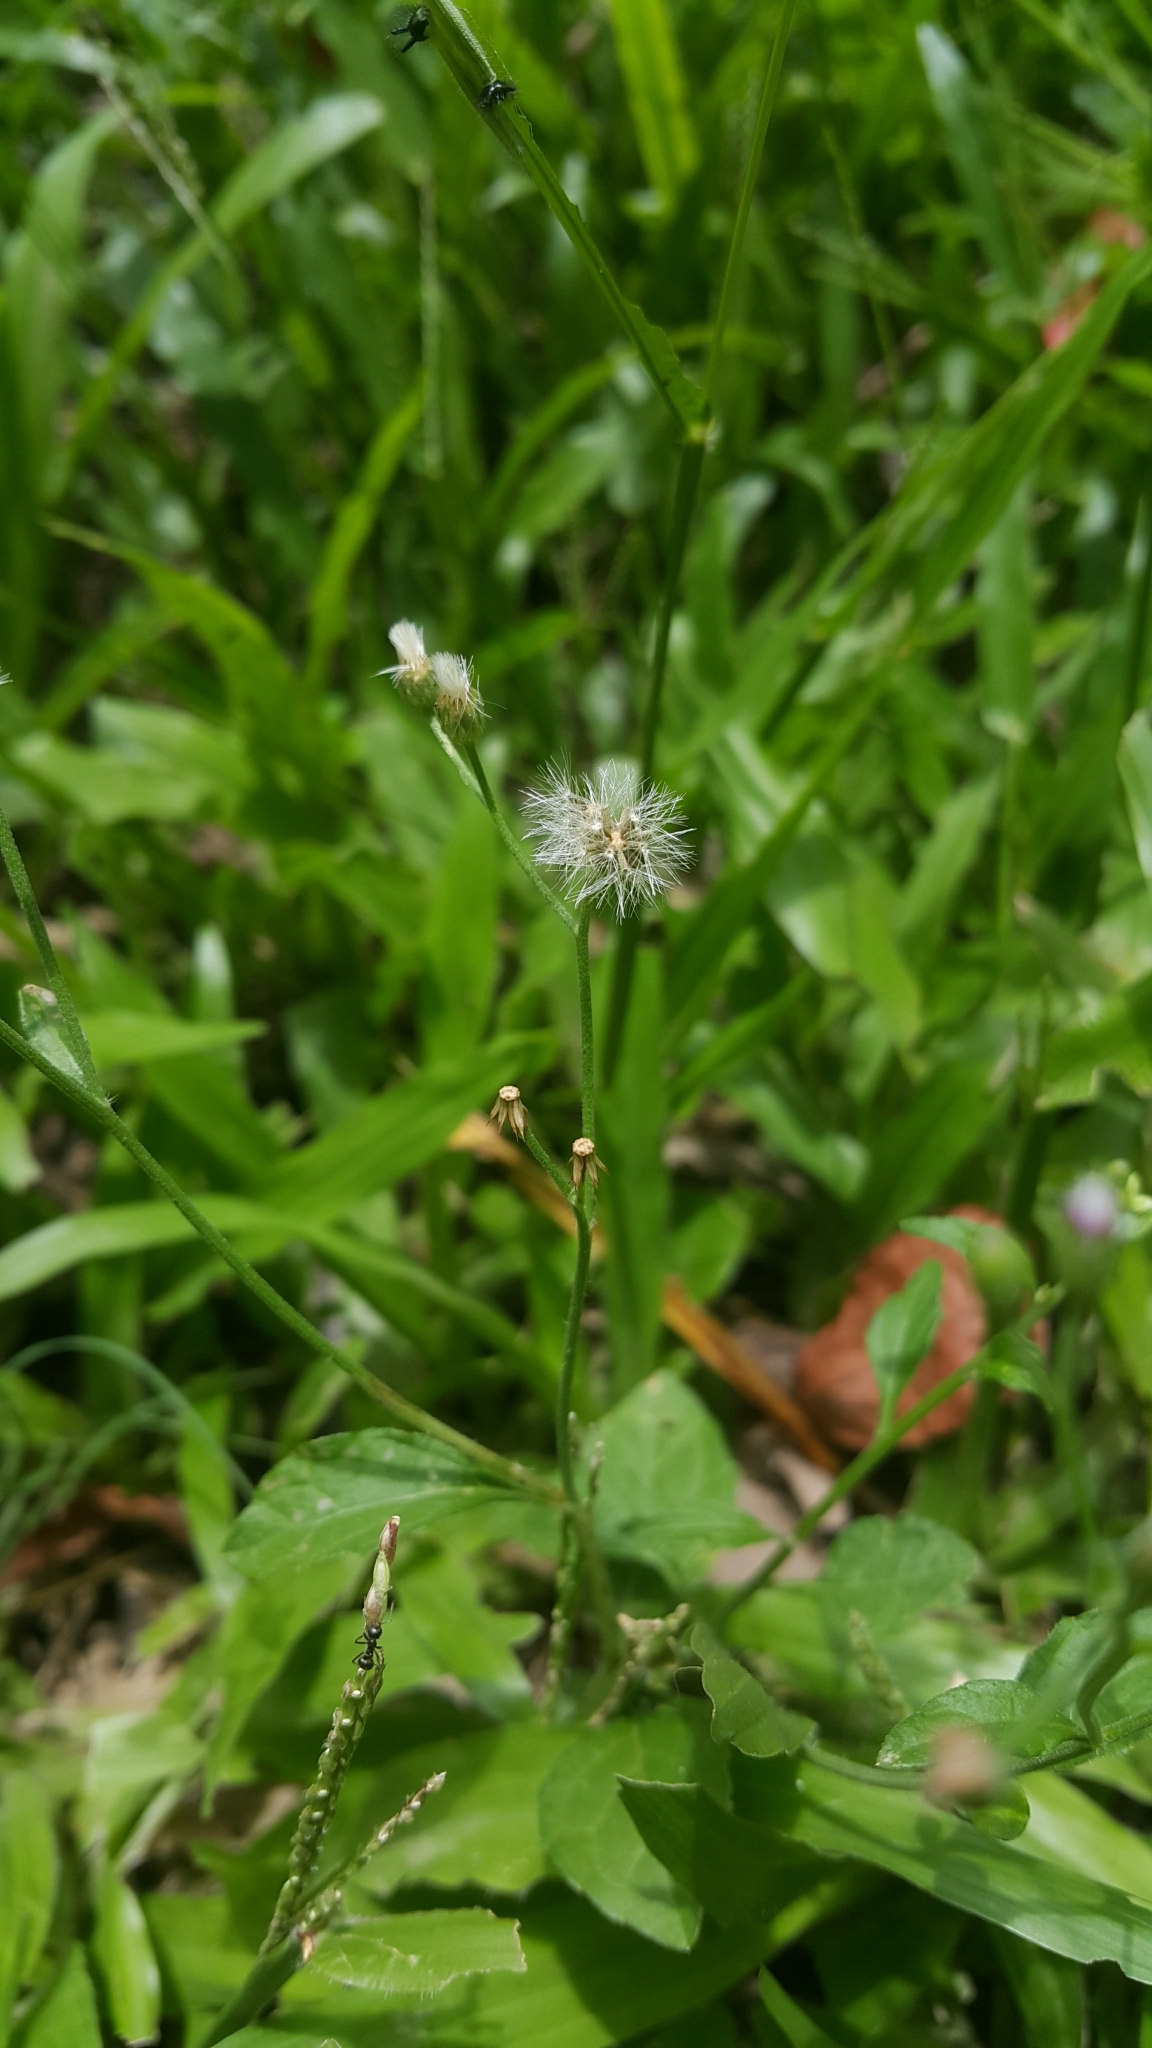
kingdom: Plantae
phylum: Tracheophyta
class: Magnoliopsida
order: Asterales
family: Asteraceae
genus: Cyanthillium
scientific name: Cyanthillium cinereum
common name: Little ironweed
